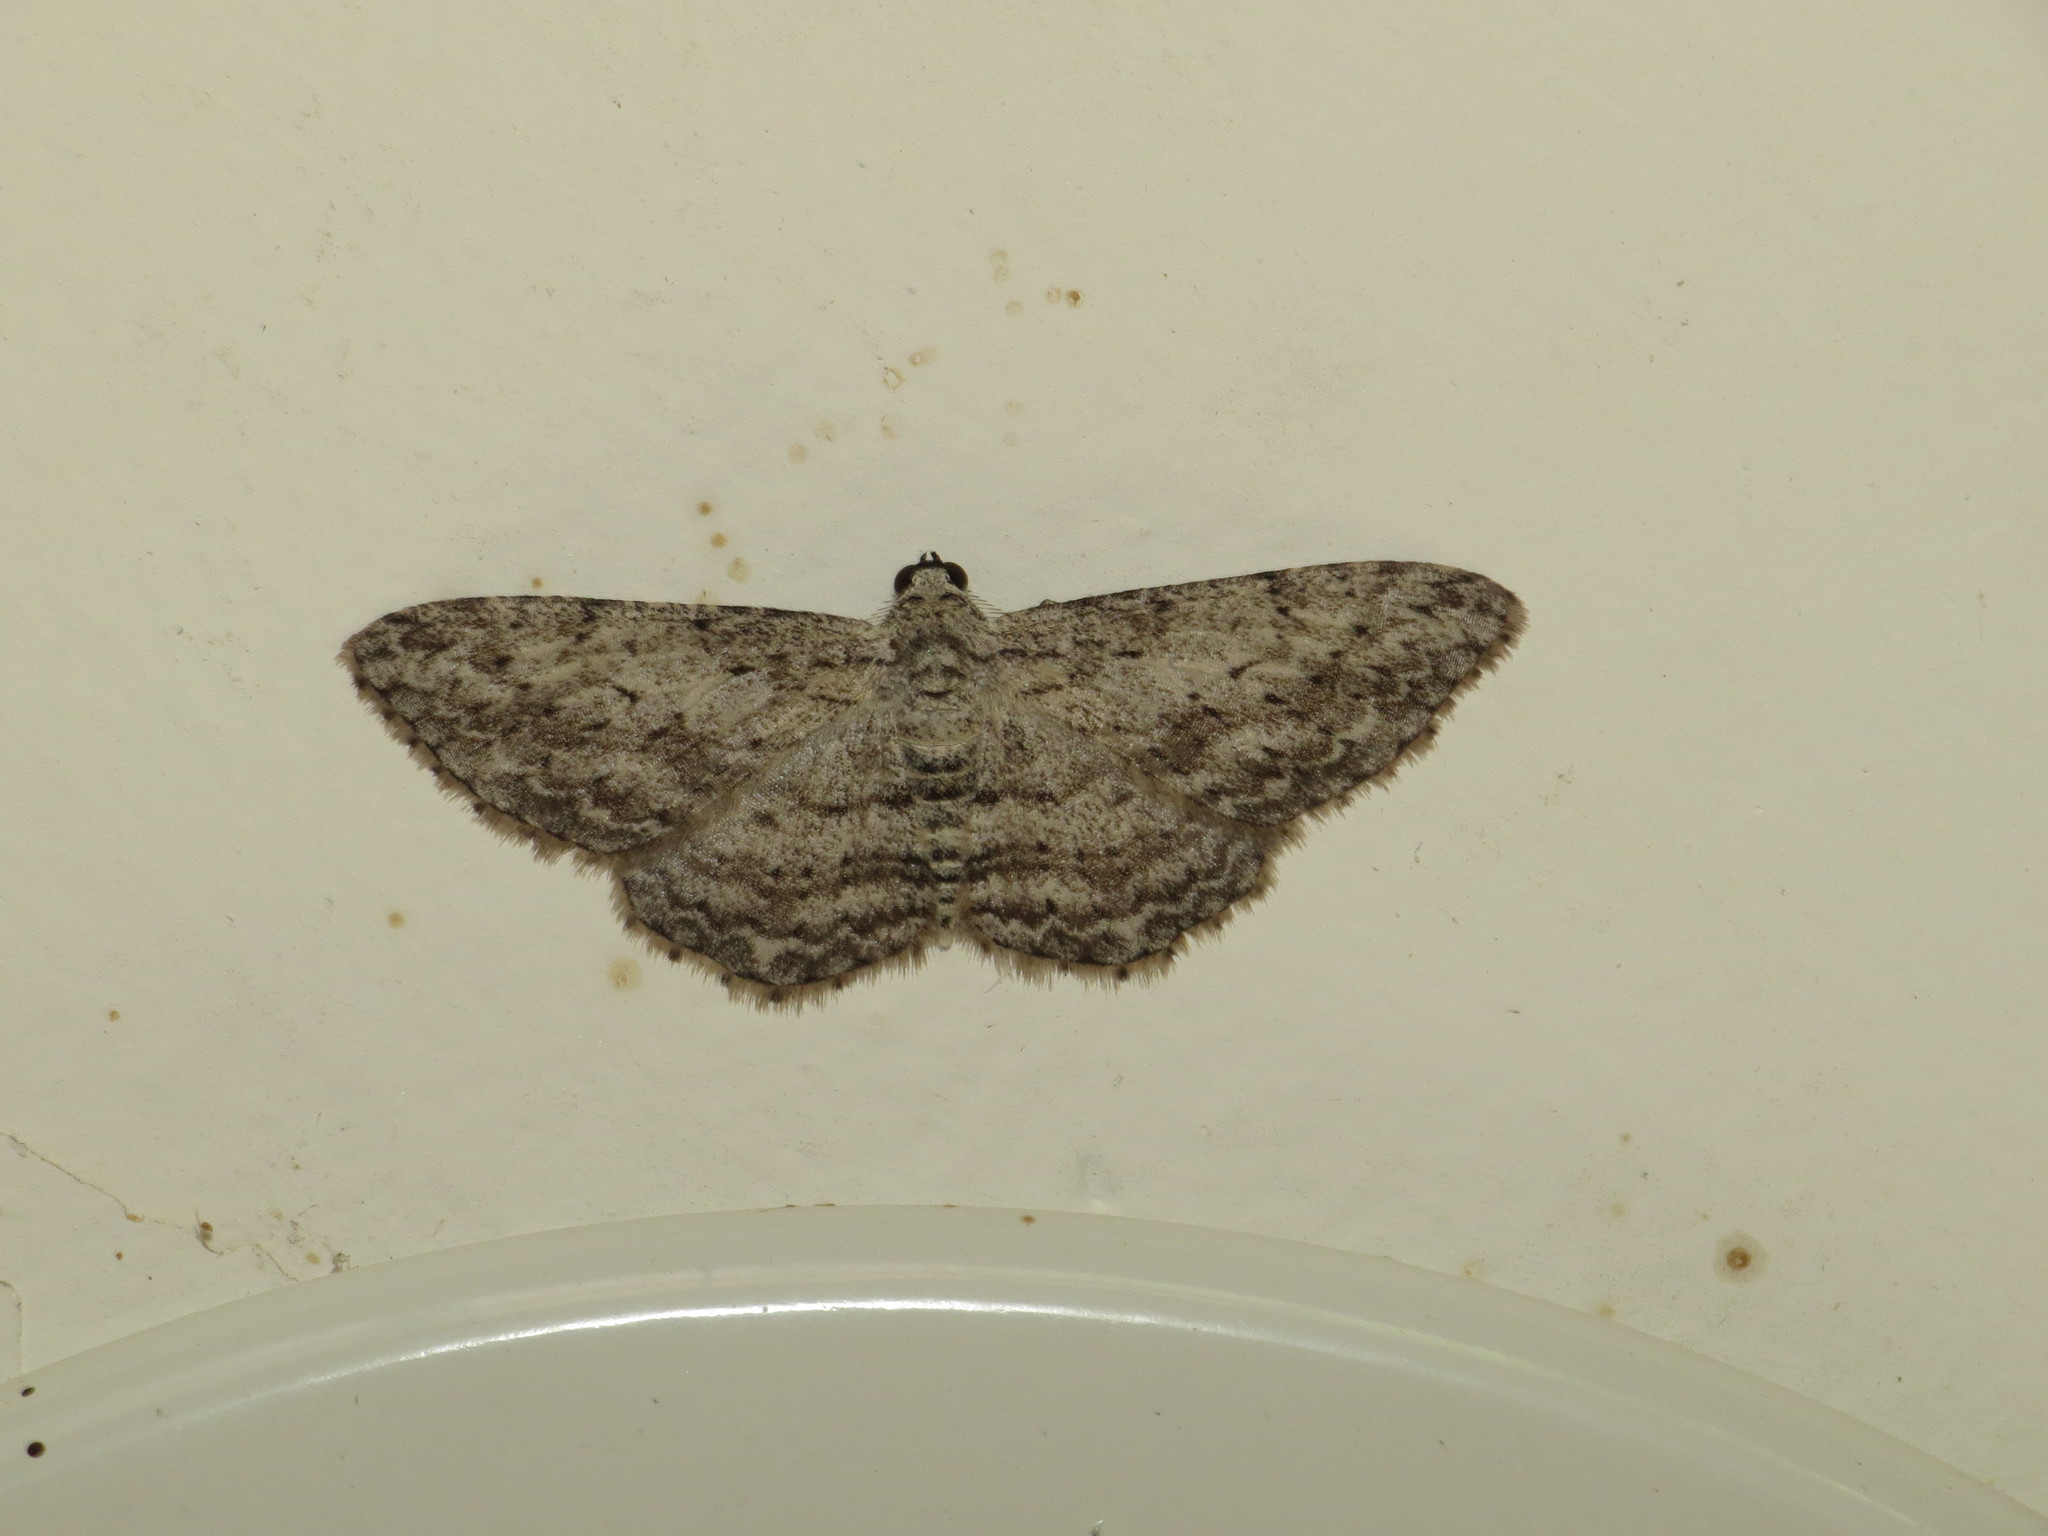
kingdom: Animalia
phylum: Arthropoda
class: Insecta
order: Lepidoptera
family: Geometridae
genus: Phelotis
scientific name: Phelotis cognata
